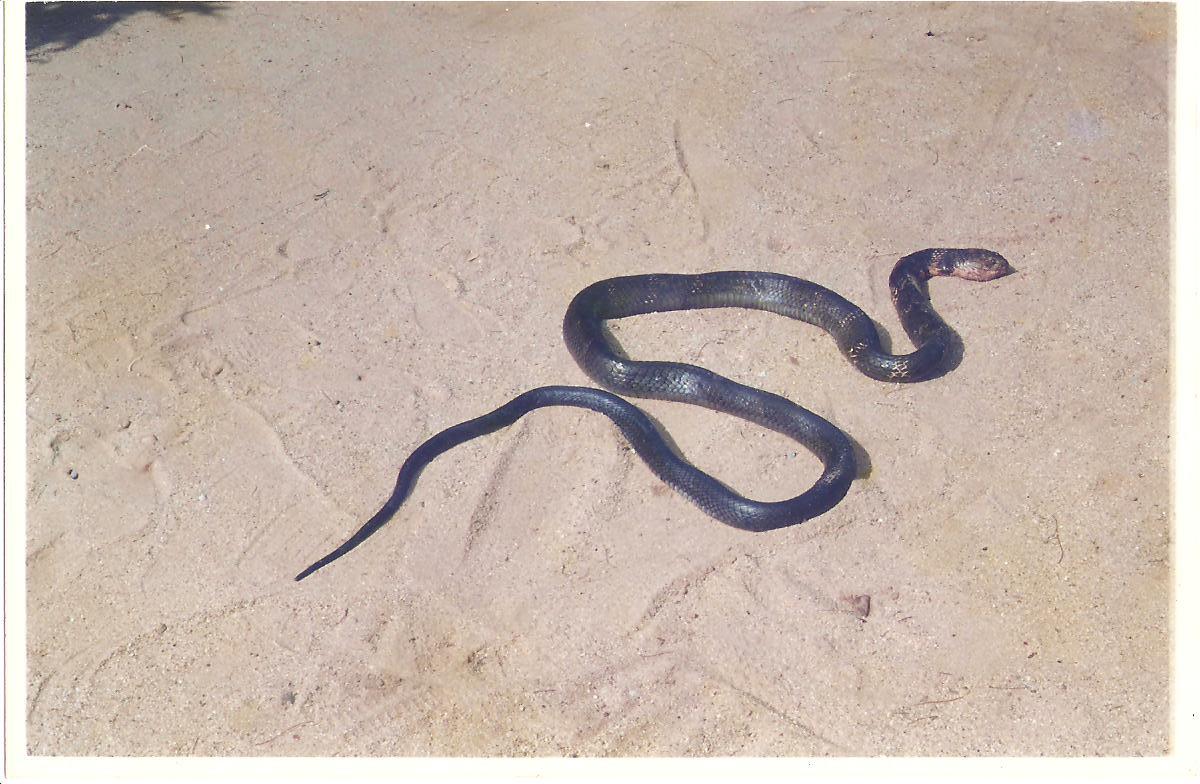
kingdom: Animalia
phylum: Chordata
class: Squamata
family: Elapidae
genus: Ophiophagus
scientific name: Ophiophagus hannah
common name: Hamadryad
